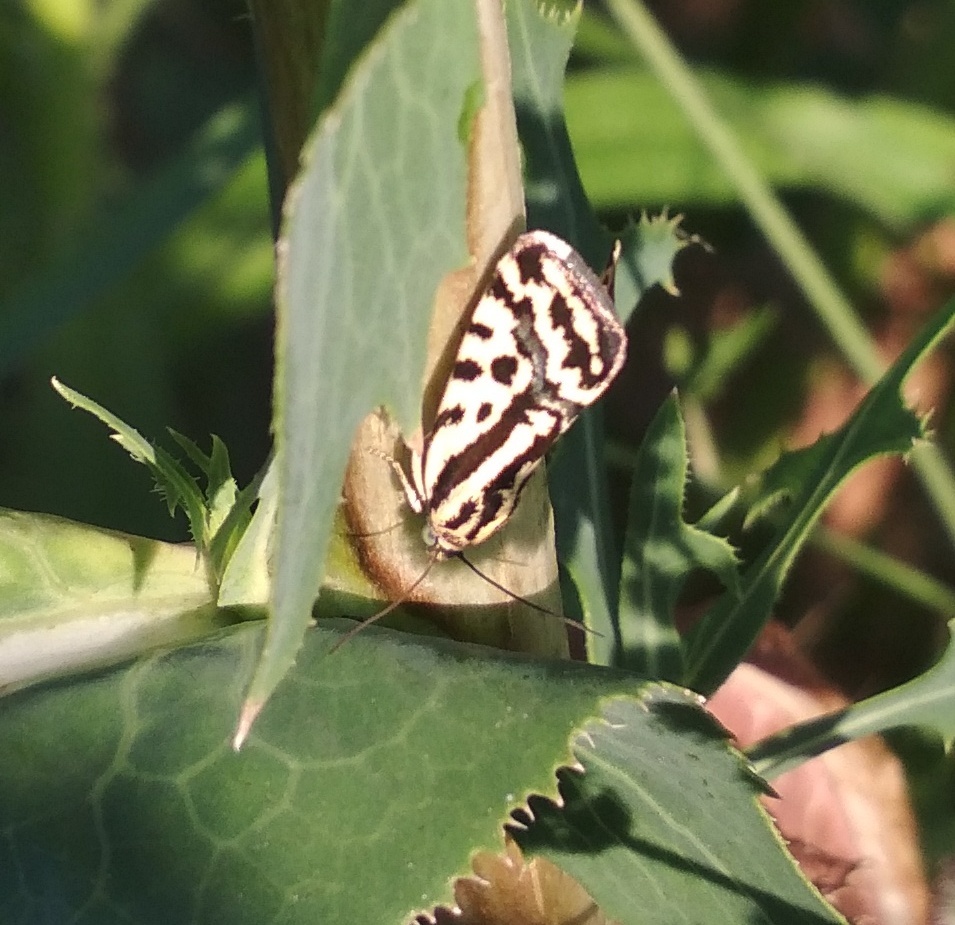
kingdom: Animalia
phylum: Arthropoda
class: Insecta
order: Lepidoptera
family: Noctuidae
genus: Acontia
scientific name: Acontia trabealis
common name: Spotted sulphur
